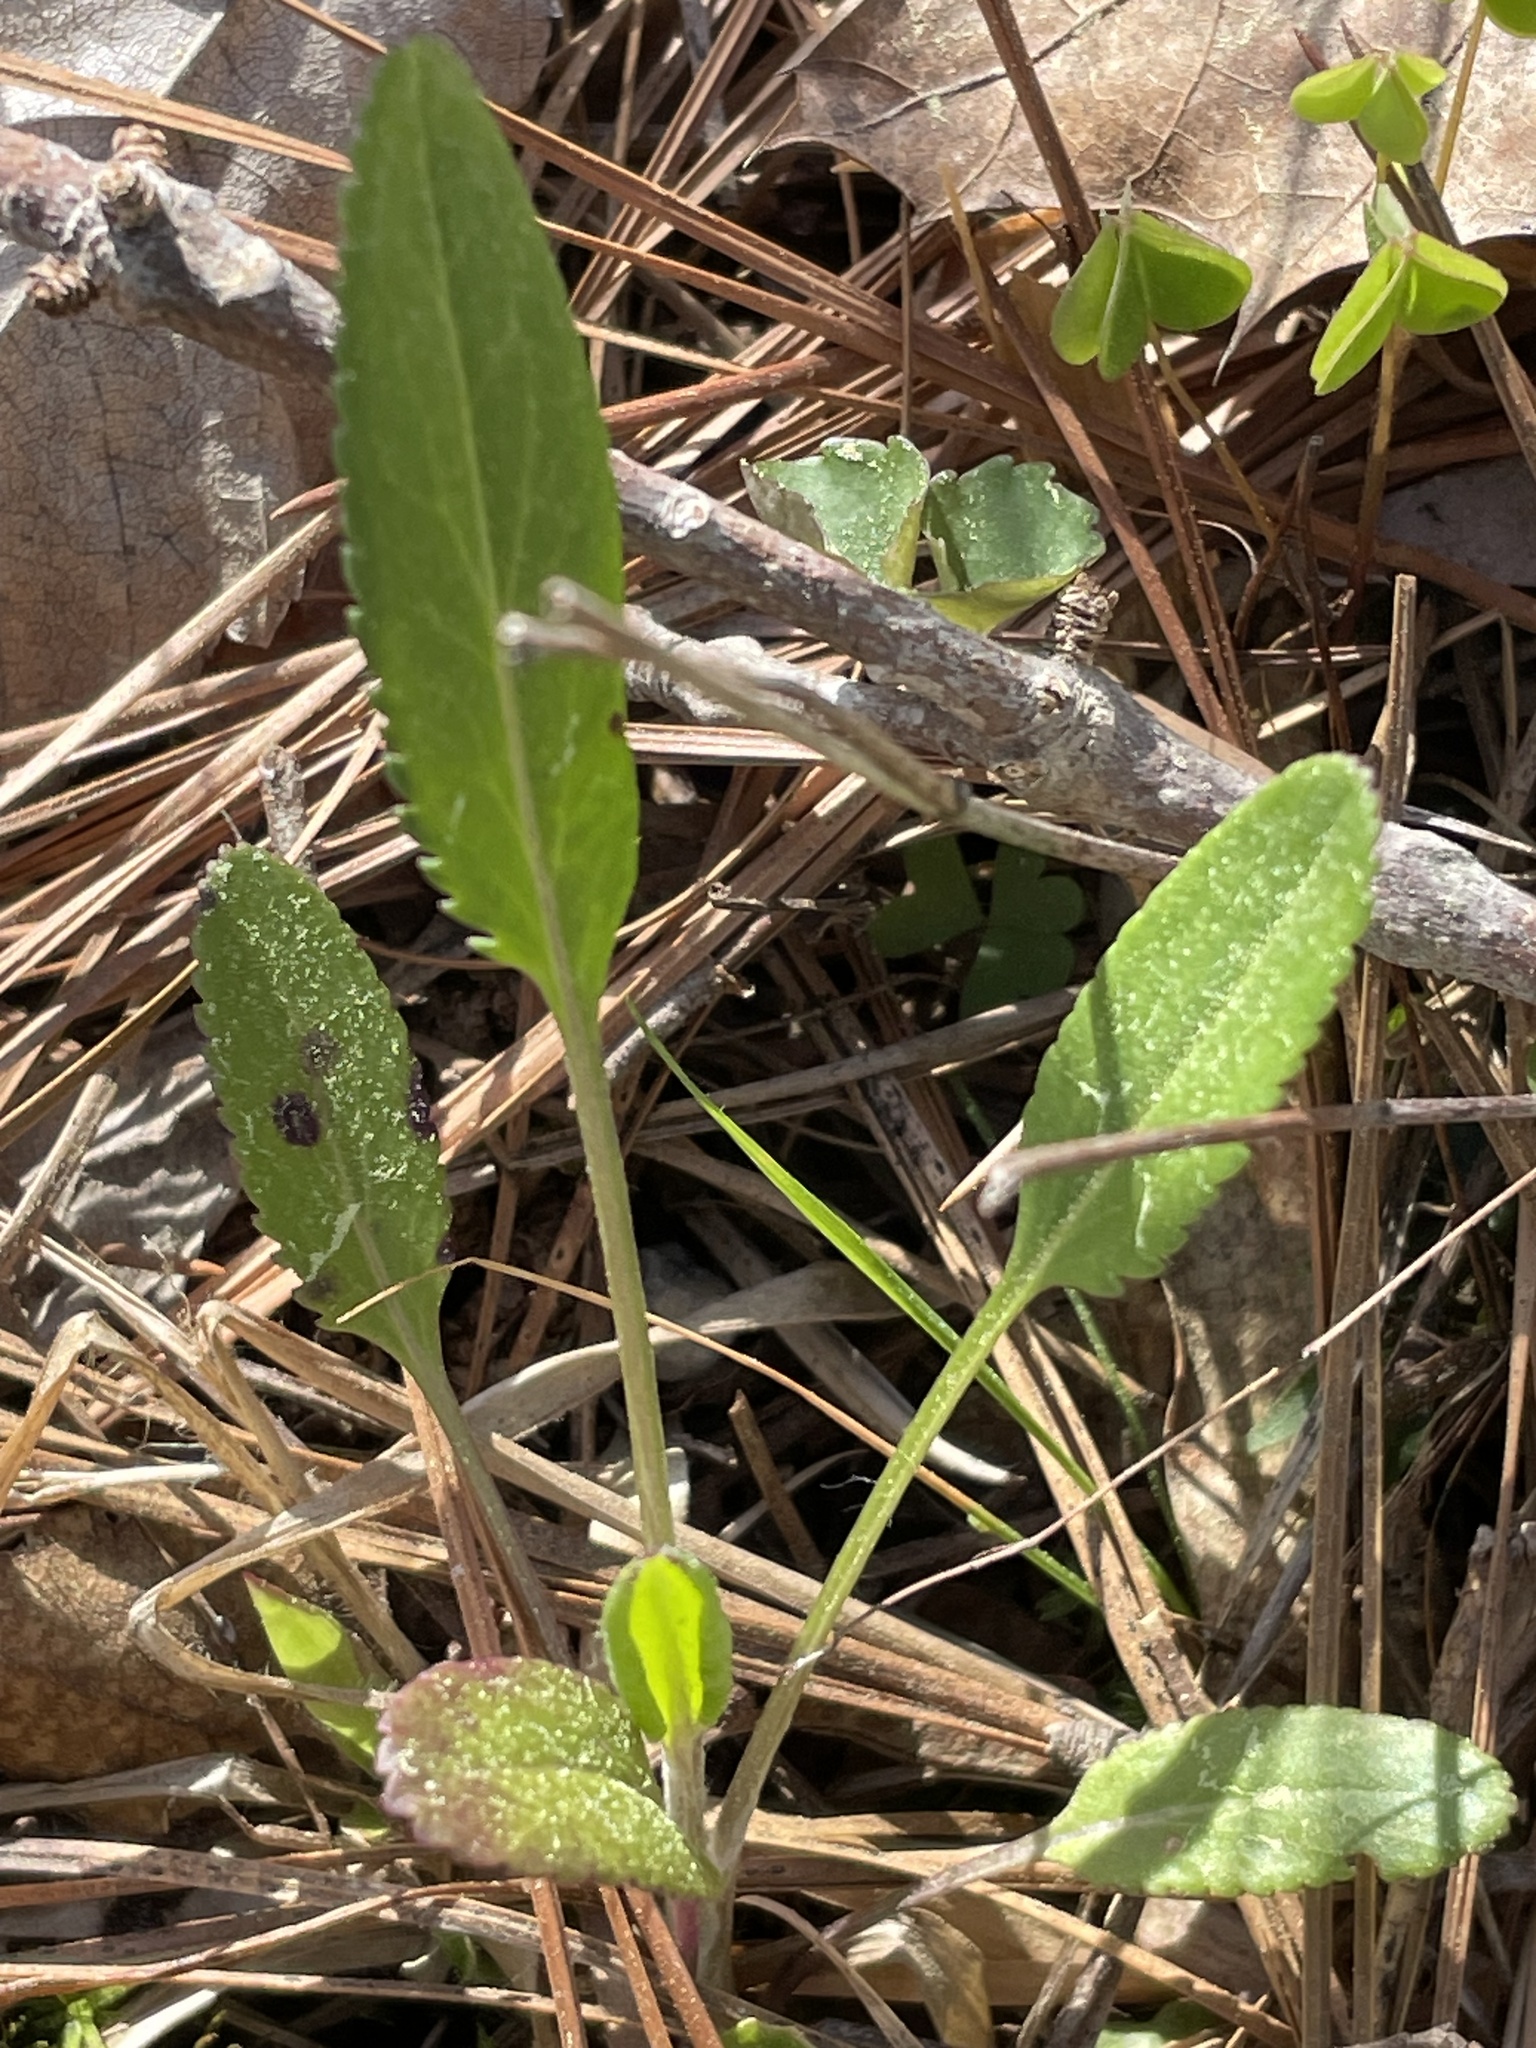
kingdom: Plantae
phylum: Tracheophyta
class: Magnoliopsida
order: Asterales
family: Asteraceae
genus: Packera
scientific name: Packera anonyma
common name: Small ragwort
